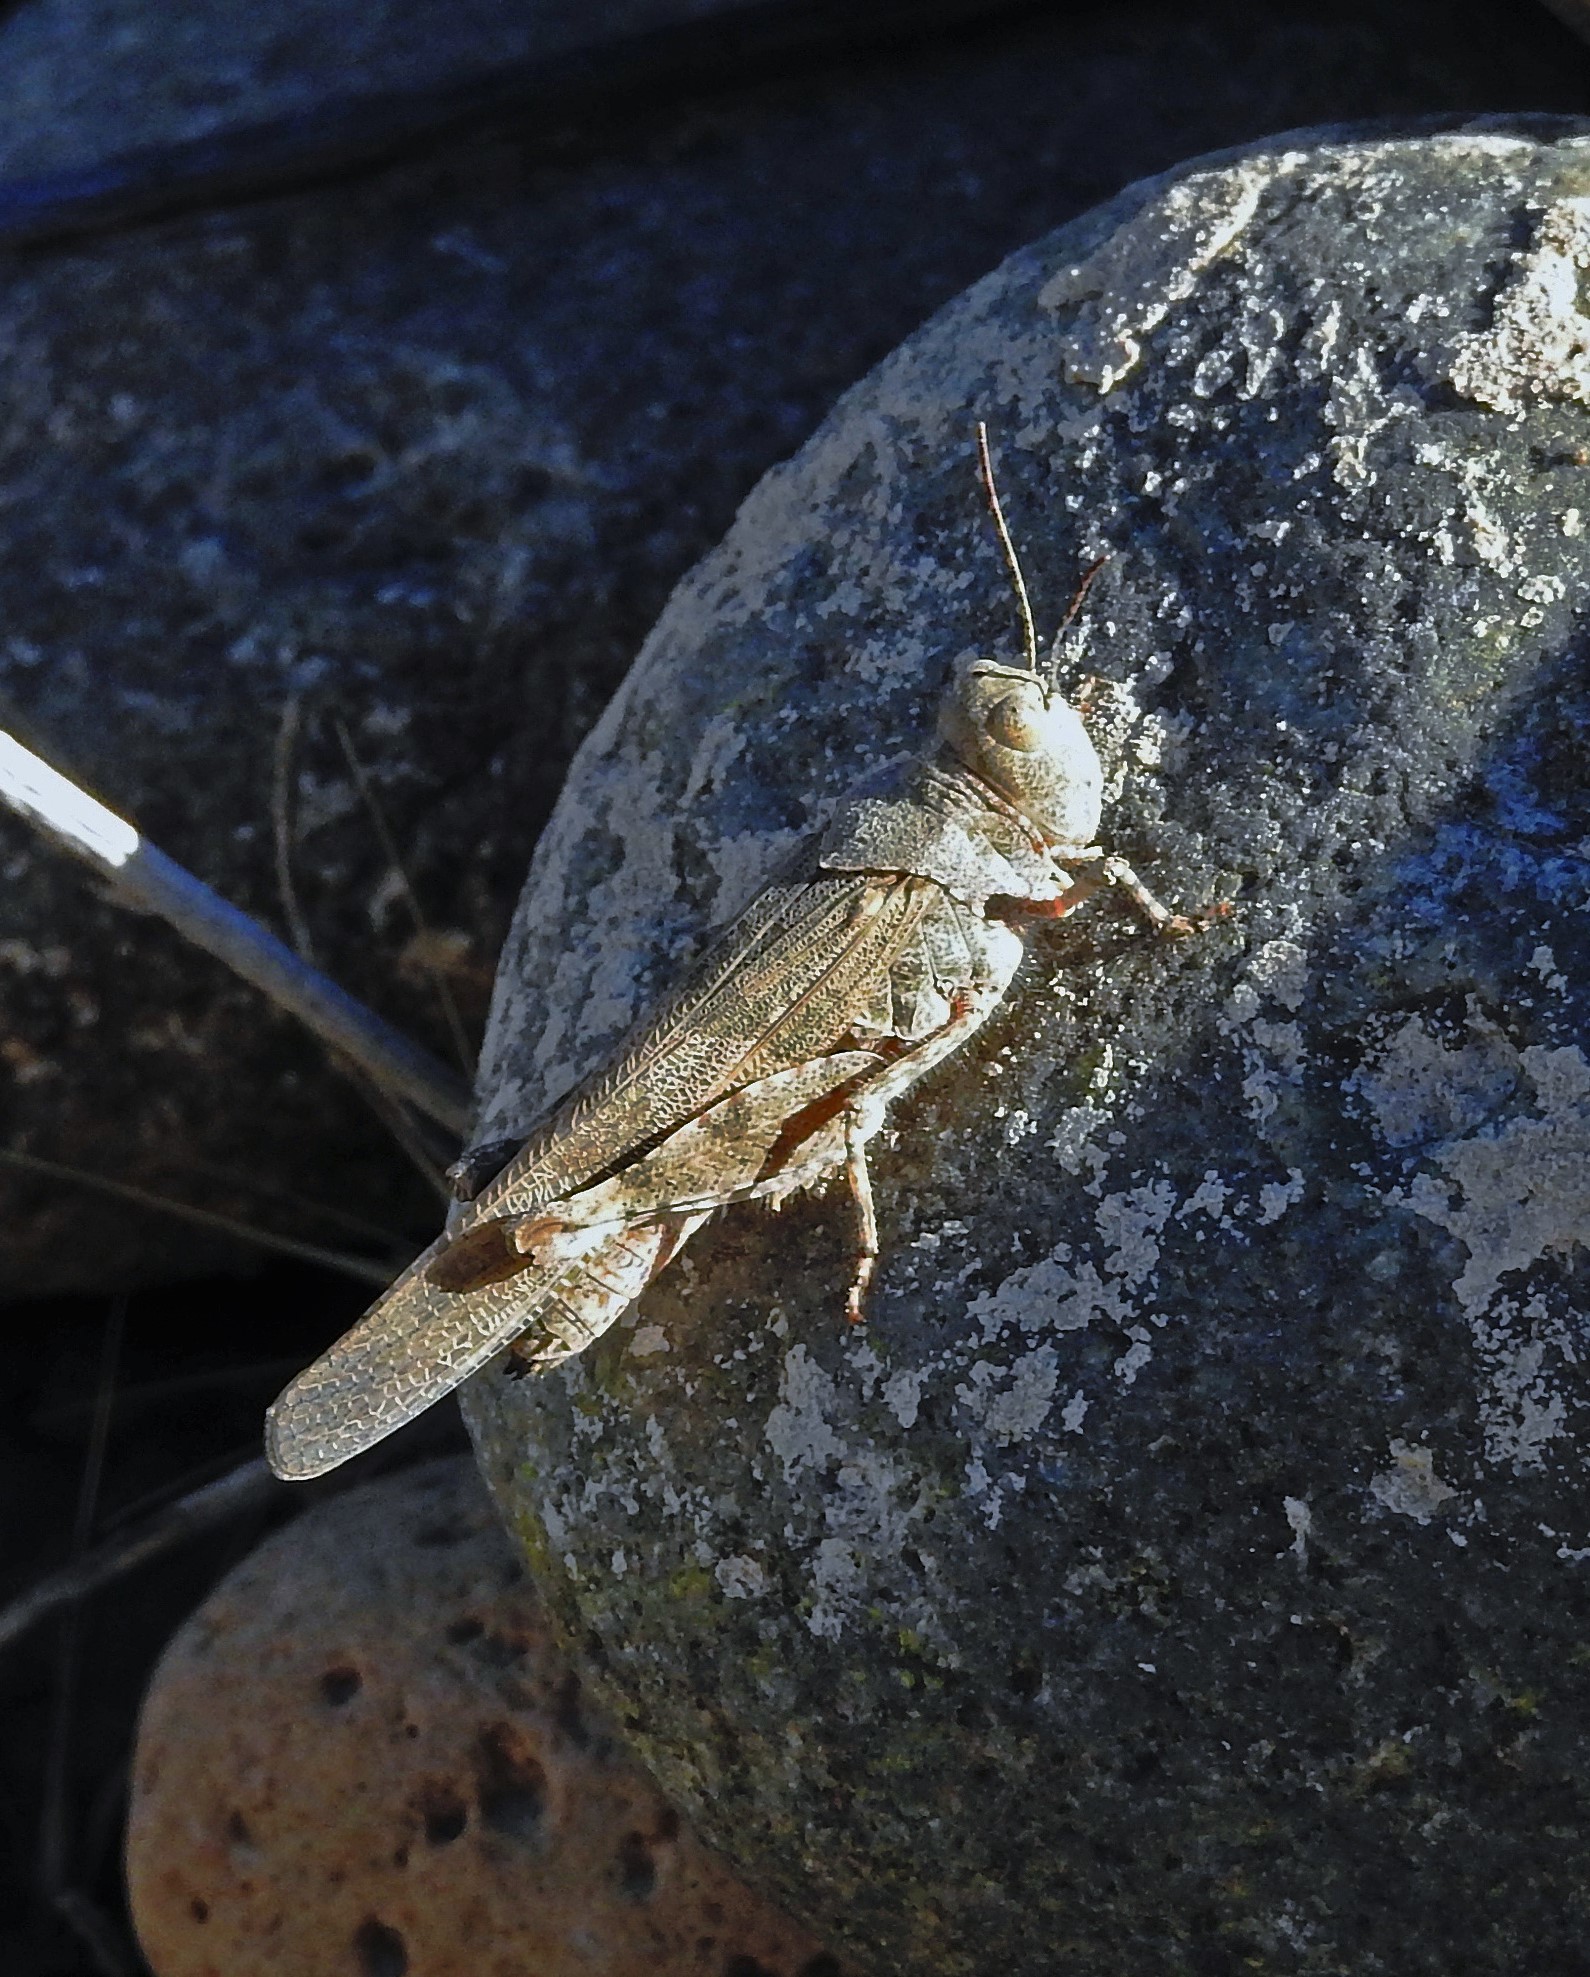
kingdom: Animalia
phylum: Arthropoda
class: Insecta
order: Orthoptera
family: Acrididae
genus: Trimerotropis
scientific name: Trimerotropis pallidipennis
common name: Pallid-winged grasshopper
